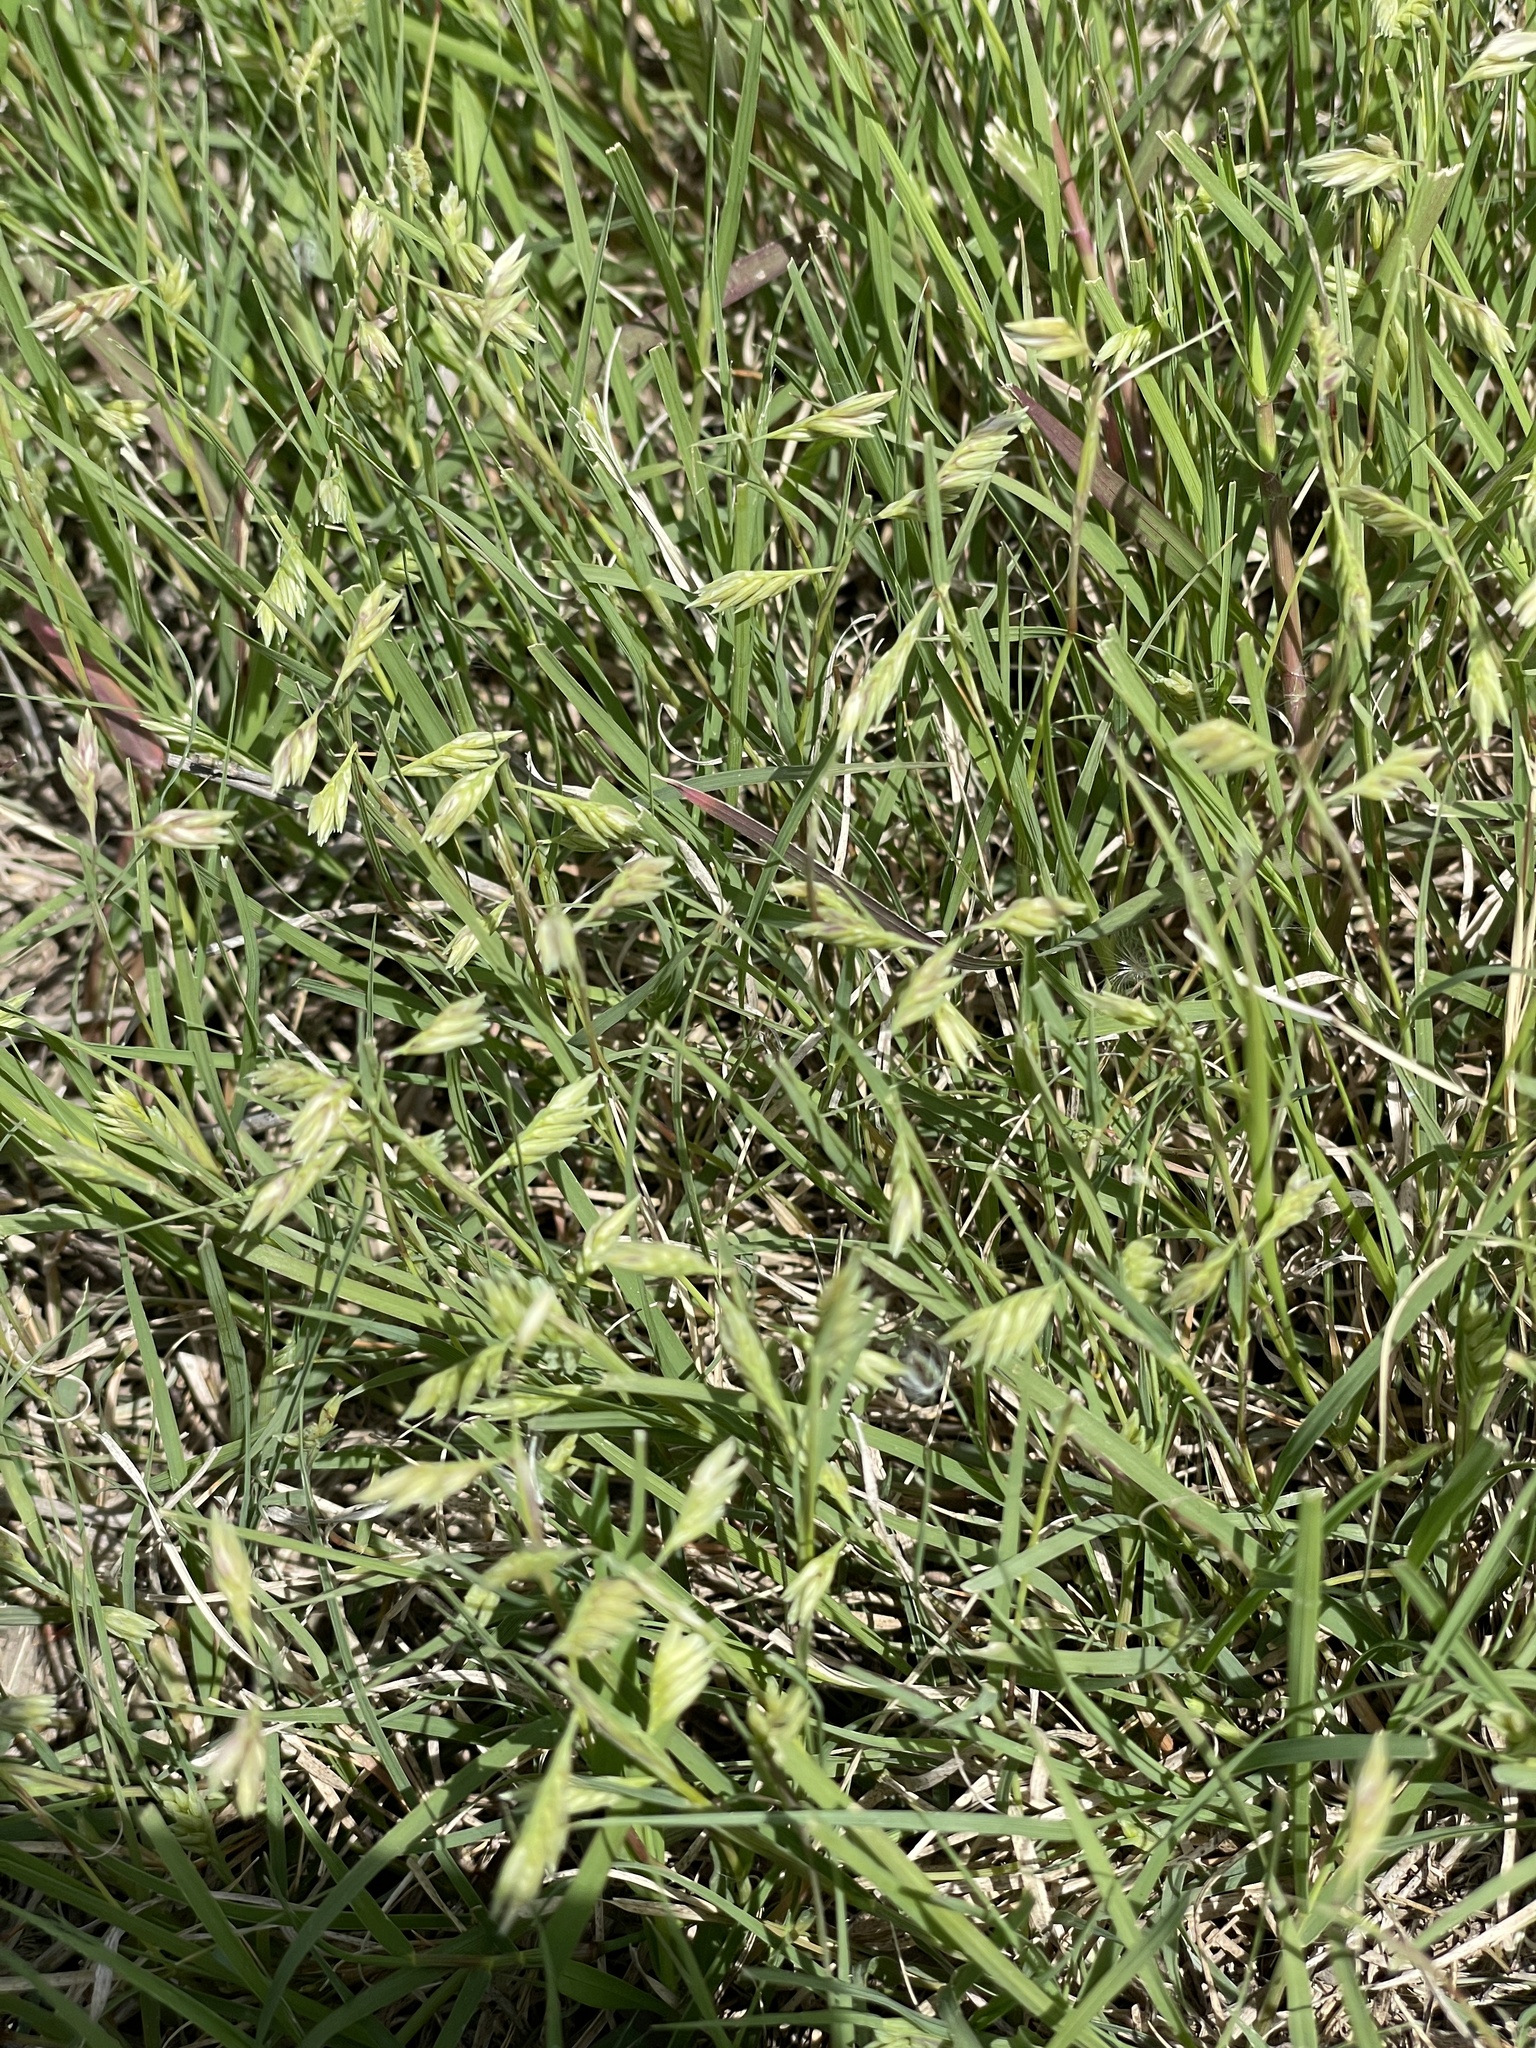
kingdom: Plantae
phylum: Tracheophyta
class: Liliopsida
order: Poales
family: Poaceae
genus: Bouteloua
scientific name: Bouteloua dactyloides
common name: Buffalo grass
